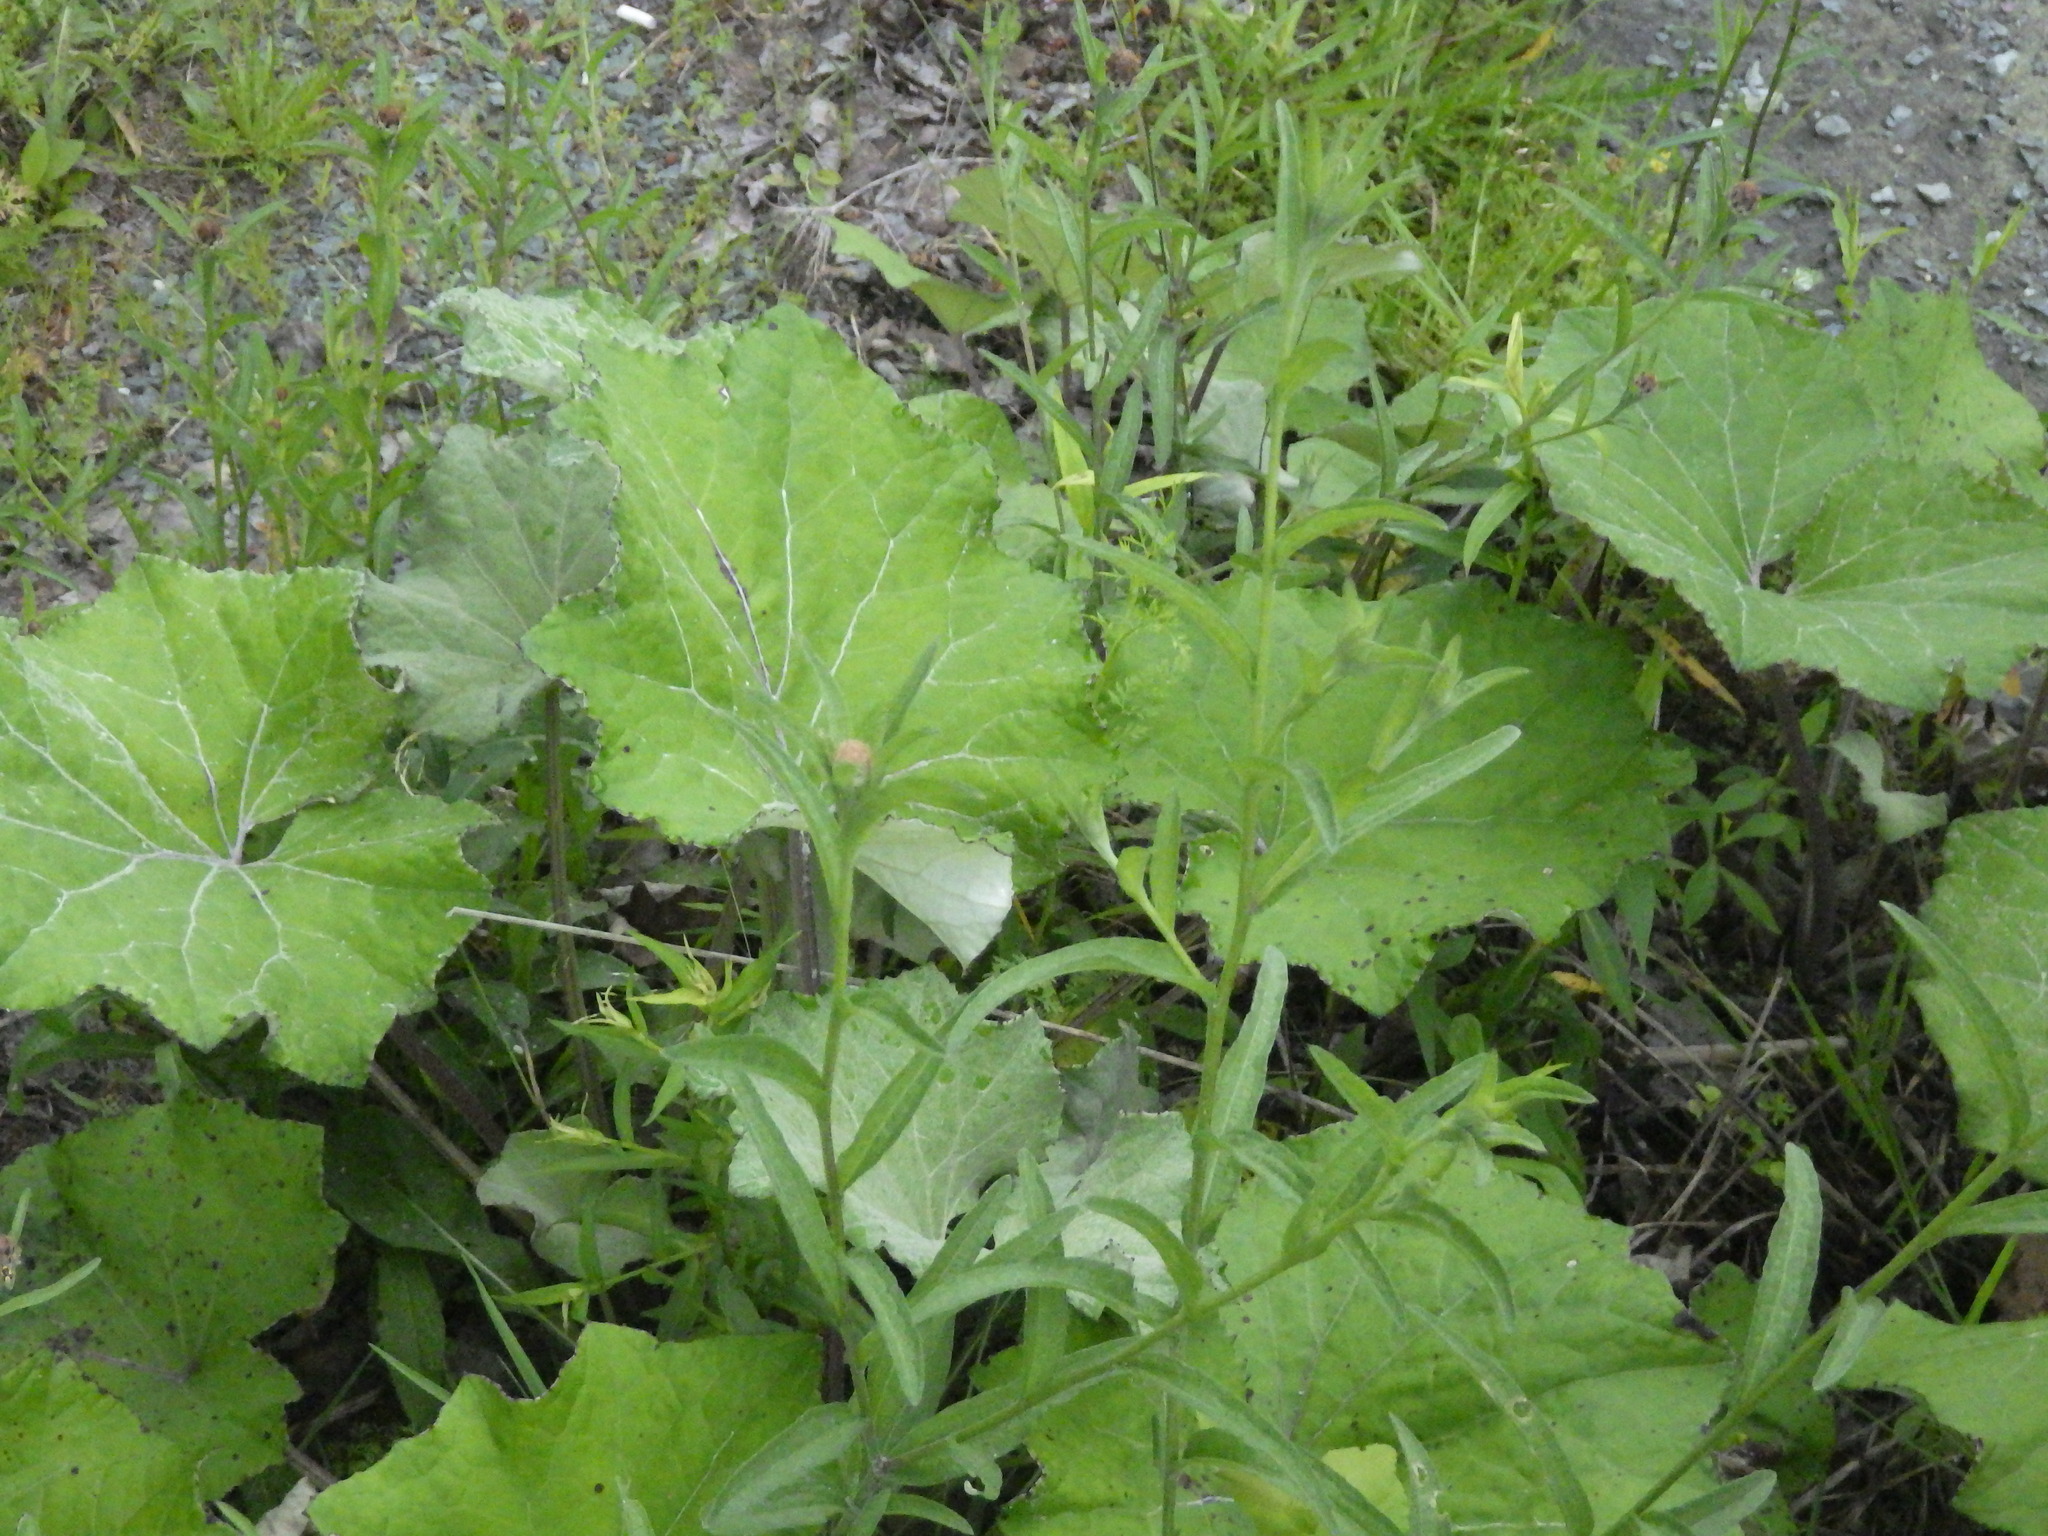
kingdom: Plantae
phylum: Tracheophyta
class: Magnoliopsida
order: Asterales
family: Asteraceae
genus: Tussilago
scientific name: Tussilago farfara
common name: Coltsfoot
